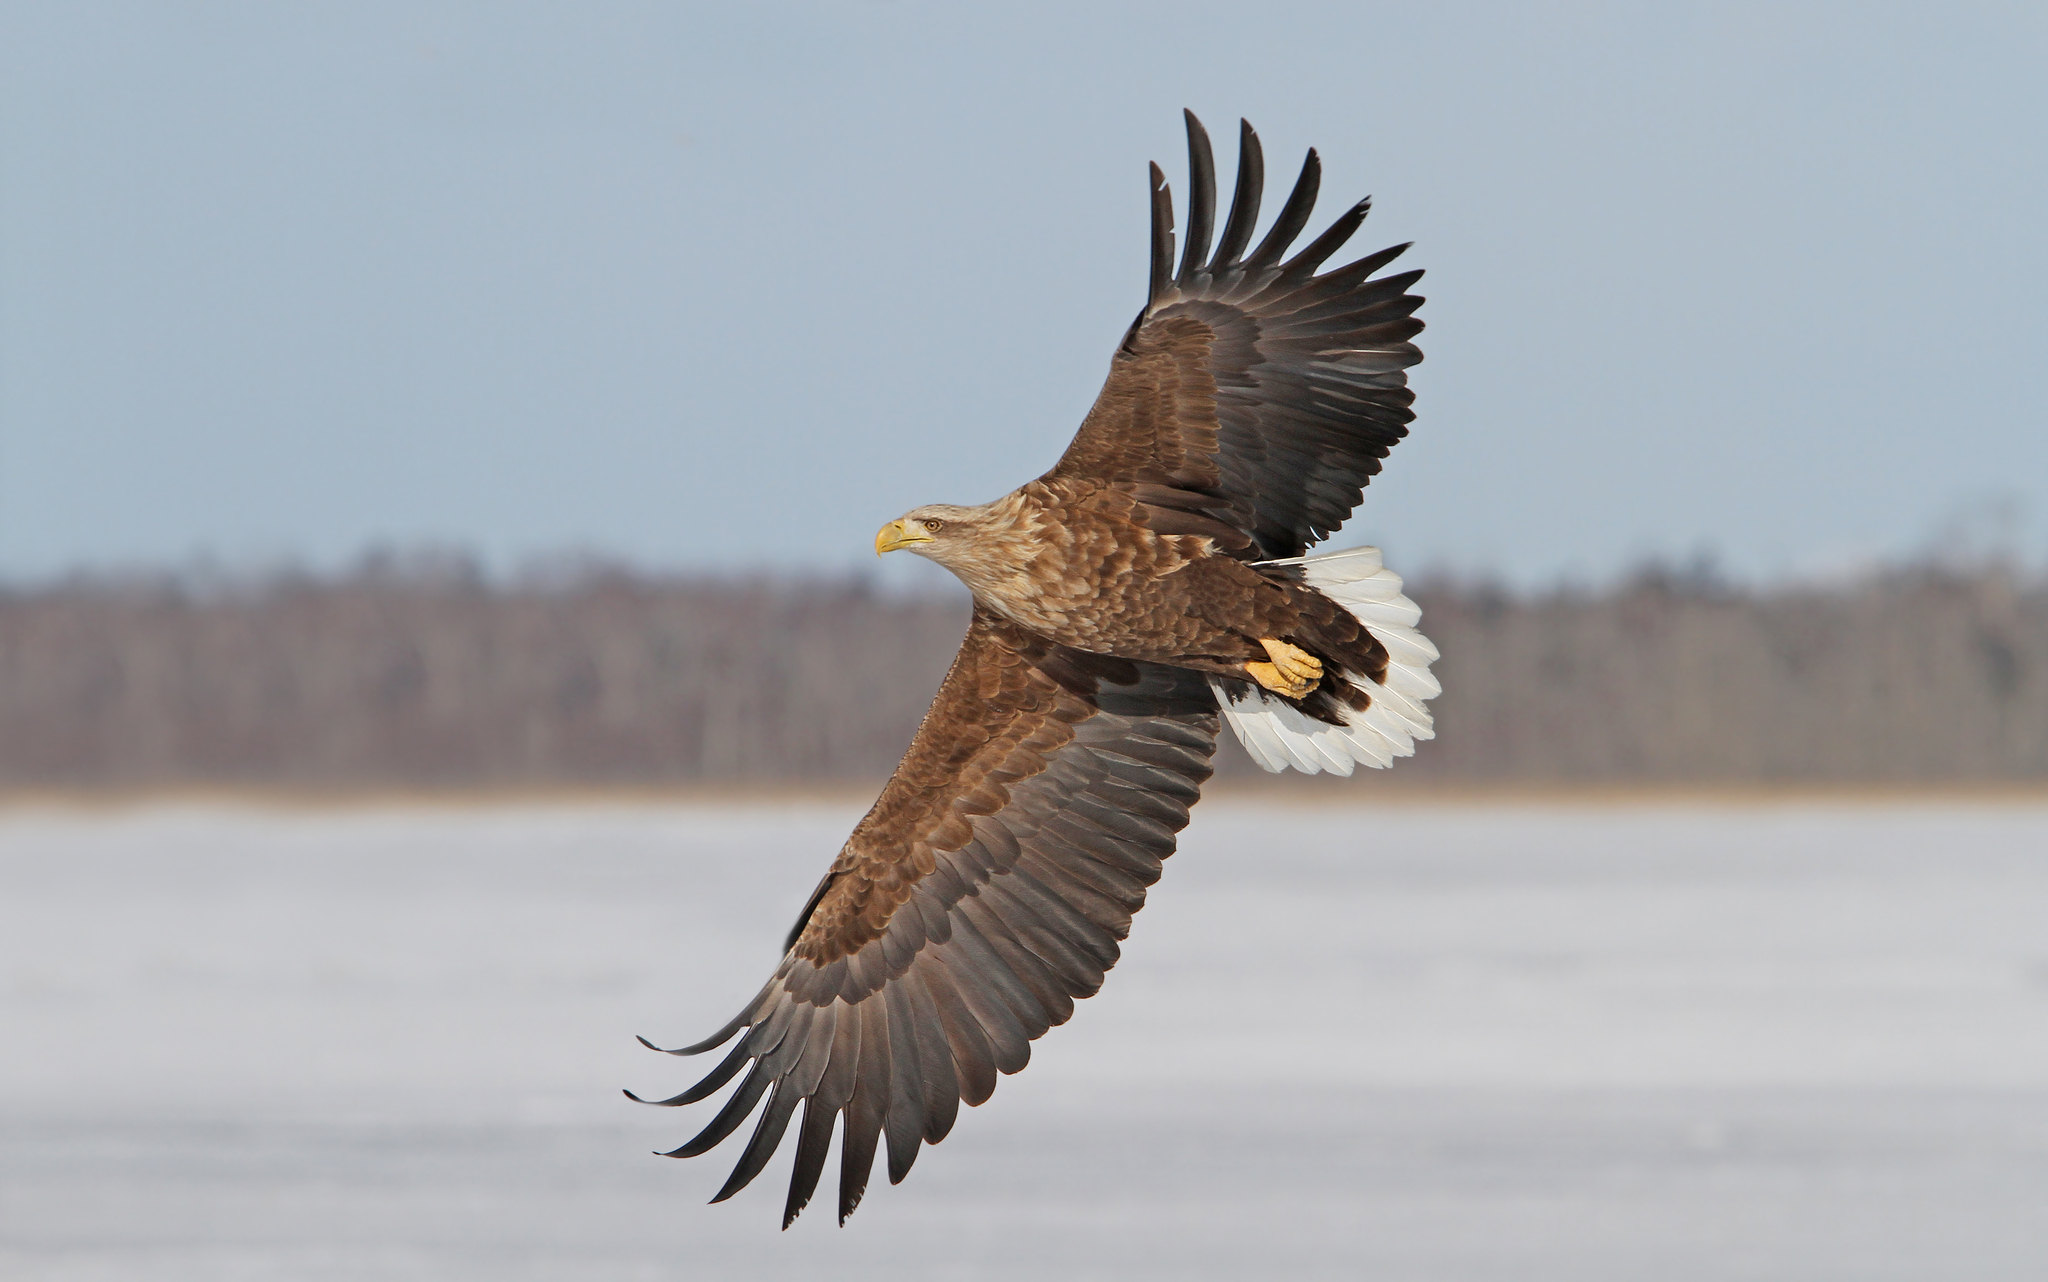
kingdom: Animalia
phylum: Chordata
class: Aves
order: Accipitriformes
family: Accipitridae
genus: Haliaeetus
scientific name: Haliaeetus albicilla
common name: White-tailed eagle
